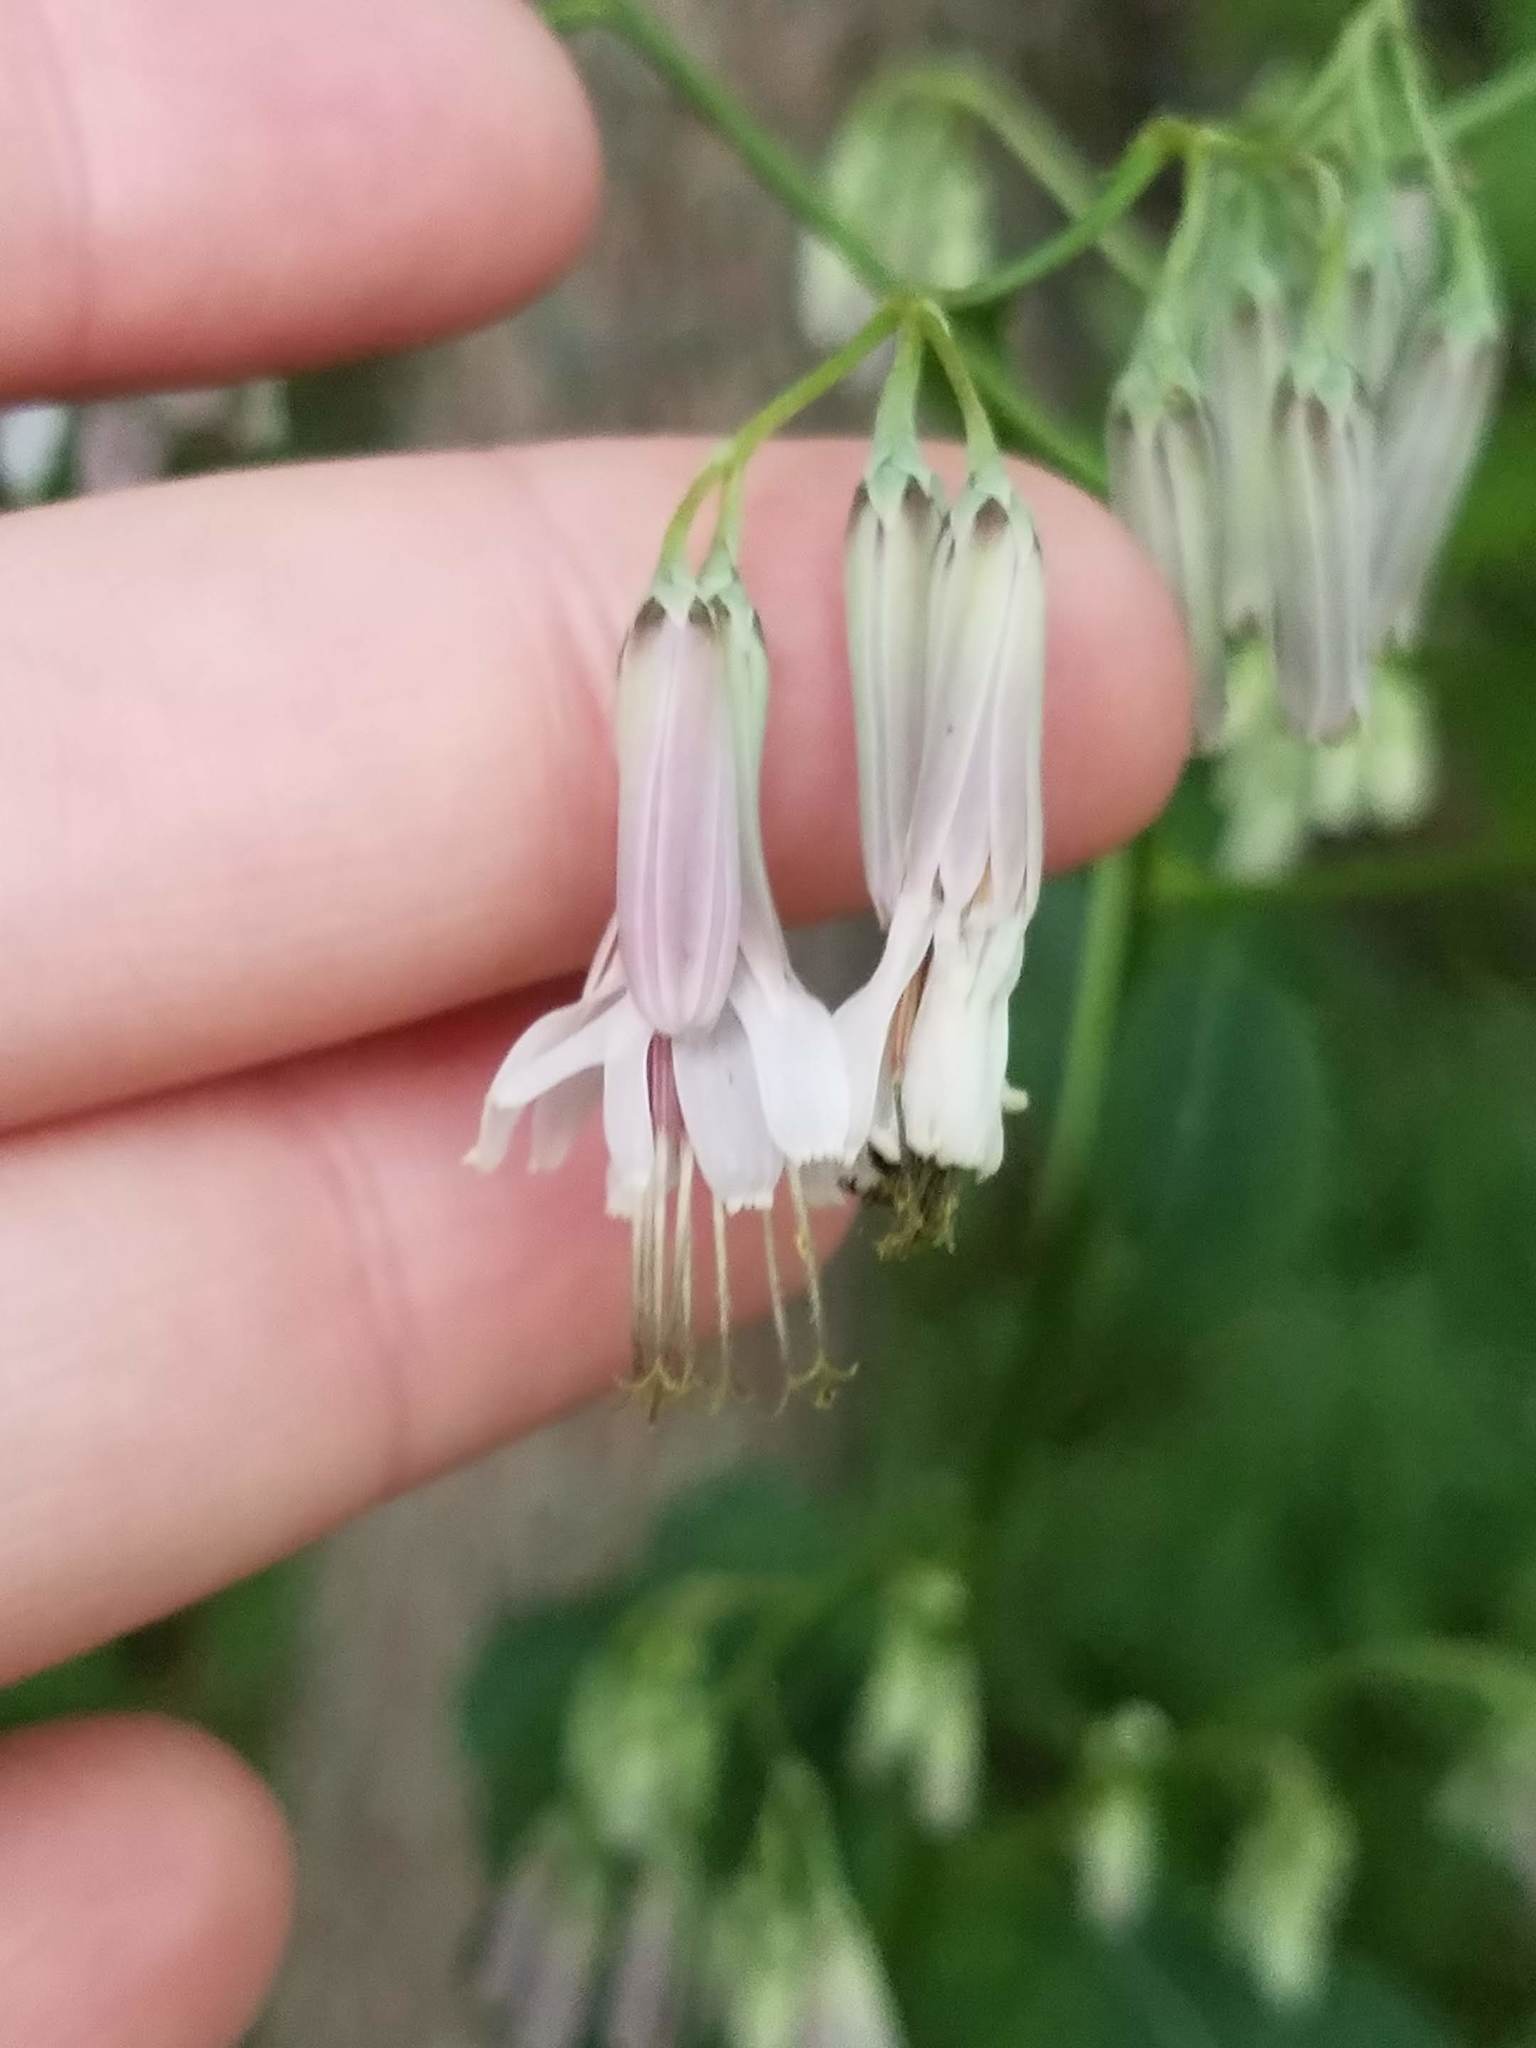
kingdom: Plantae
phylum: Tracheophyta
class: Magnoliopsida
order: Asterales
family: Asteraceae
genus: Nabalus
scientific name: Nabalus albus
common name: White rattlesnakeroot
